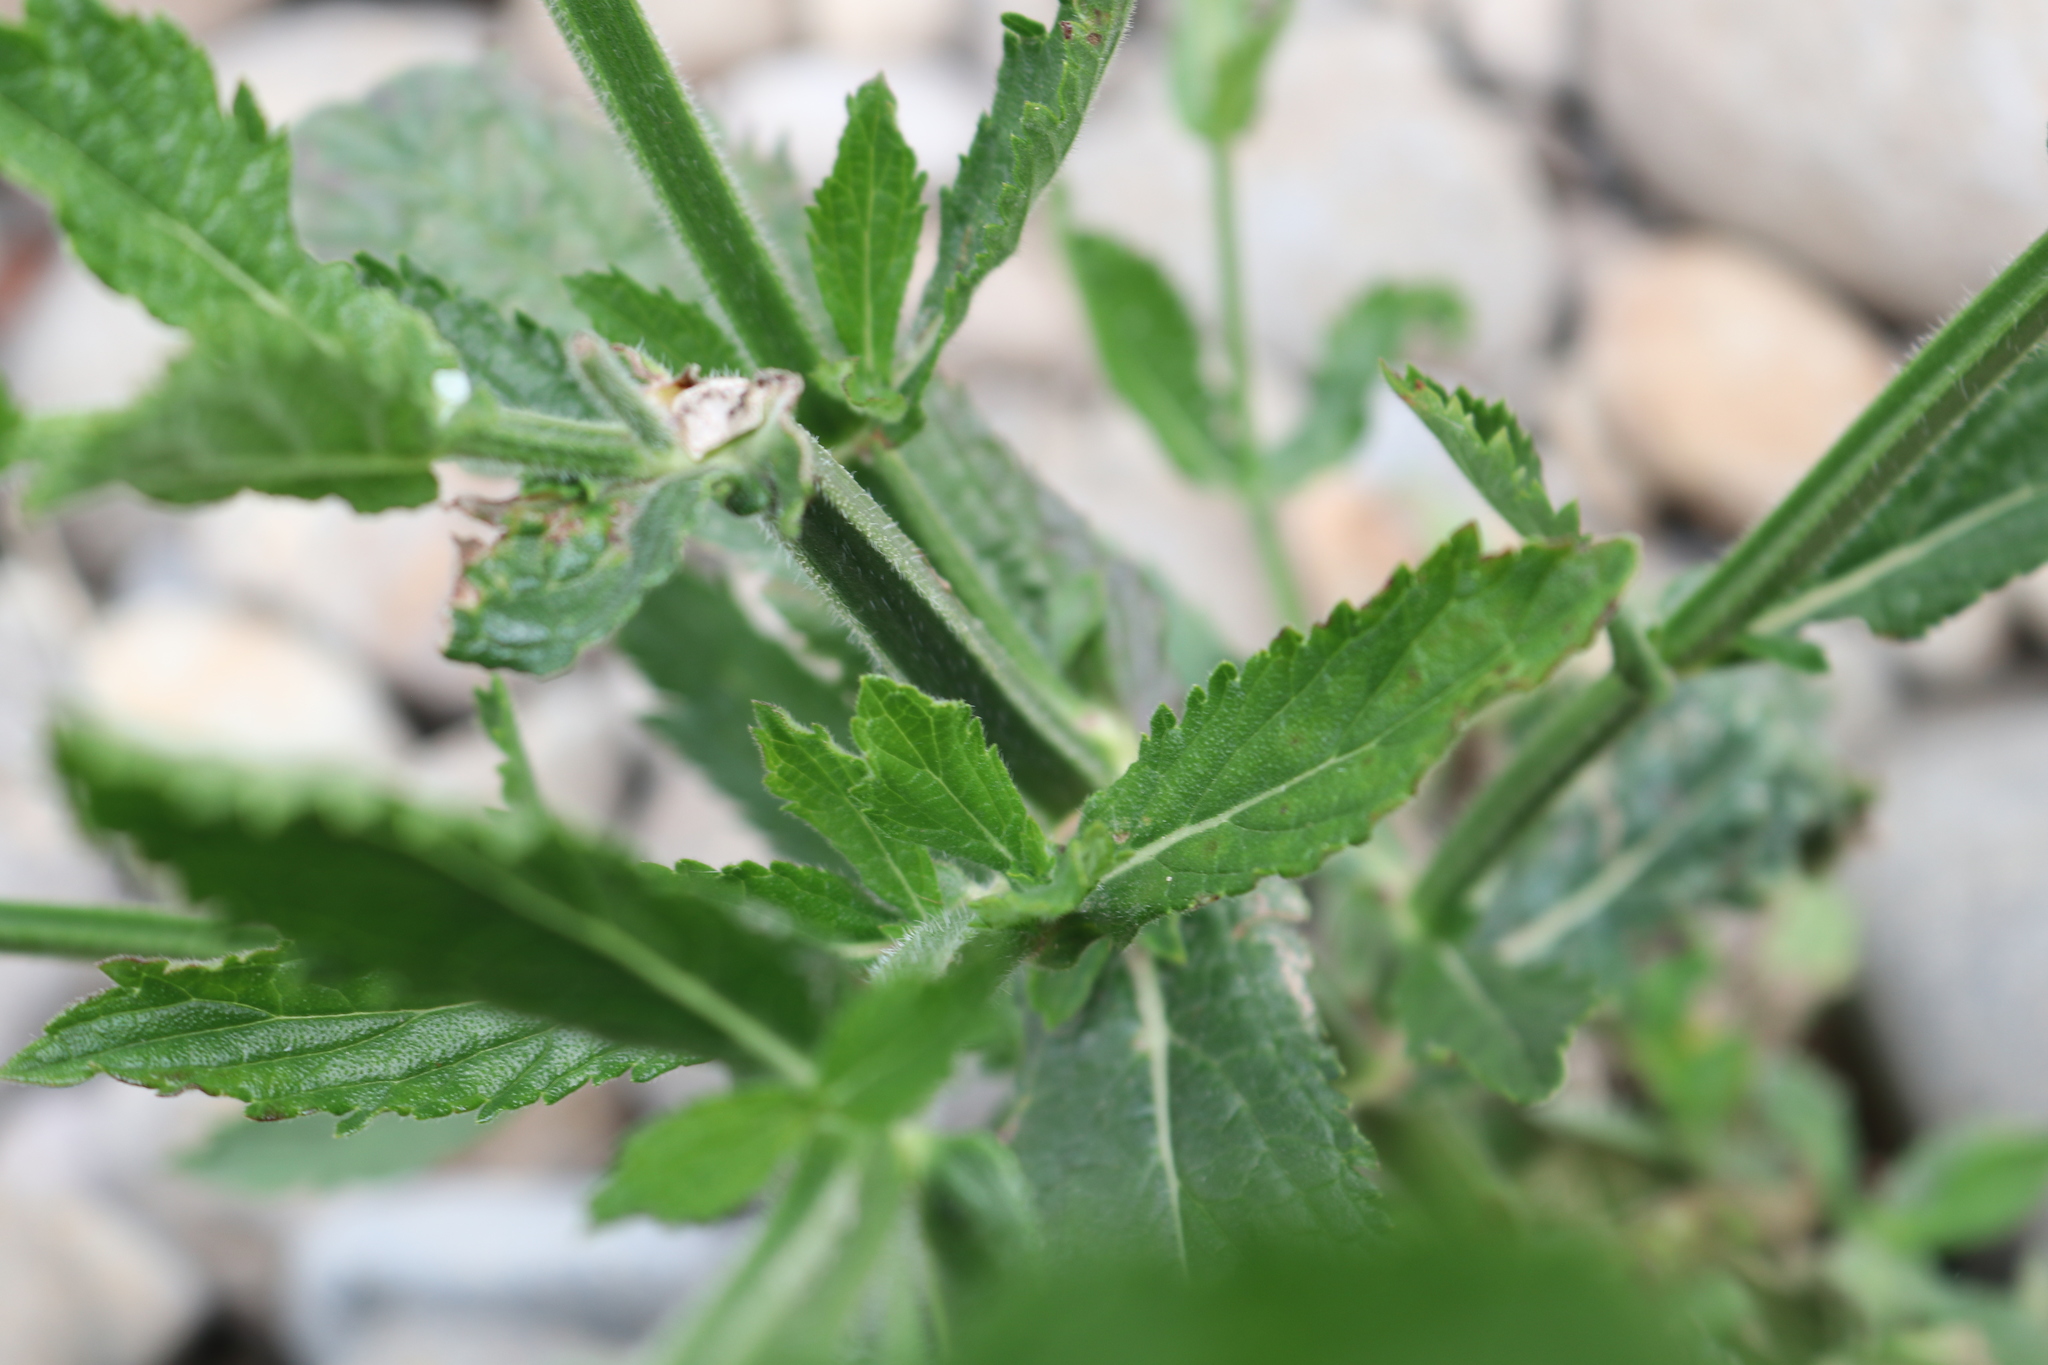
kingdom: Plantae
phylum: Tracheophyta
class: Magnoliopsida
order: Lamiales
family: Verbenaceae
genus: Verbena
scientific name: Verbena bonariensis
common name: Purpletop vervain
